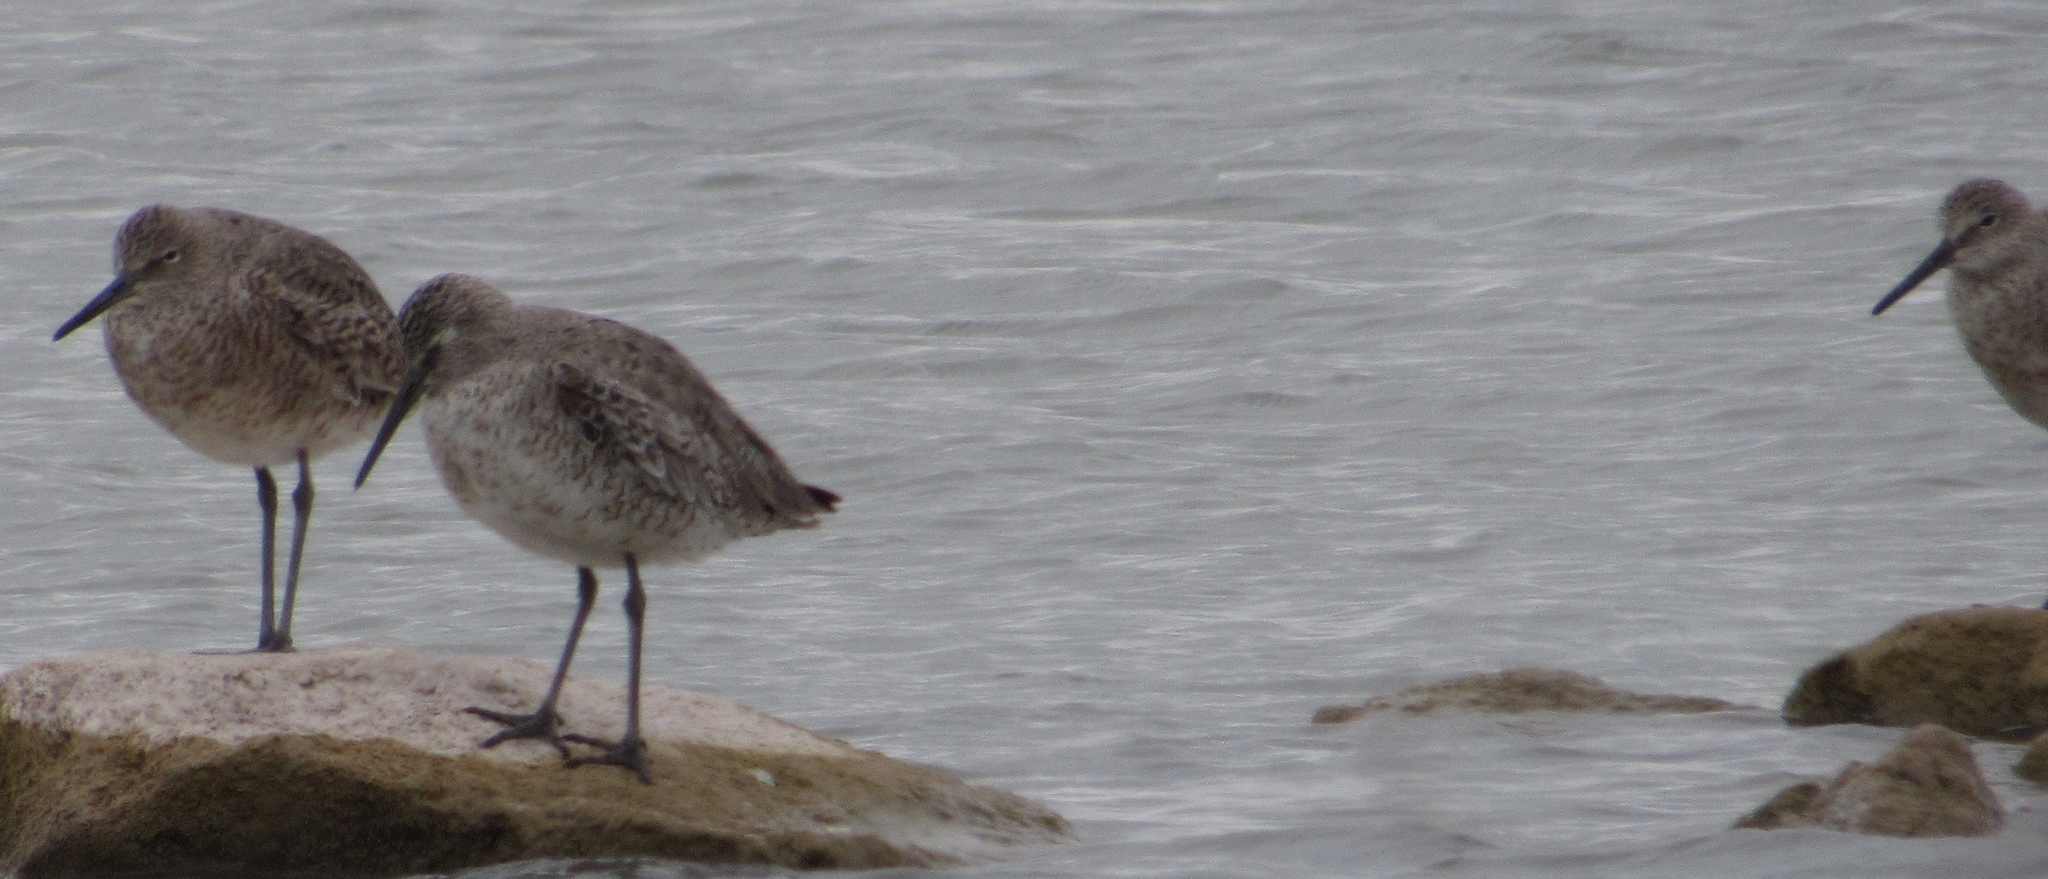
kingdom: Animalia
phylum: Chordata
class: Aves
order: Charadriiformes
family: Scolopacidae
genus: Tringa
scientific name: Tringa semipalmata
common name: Willet
